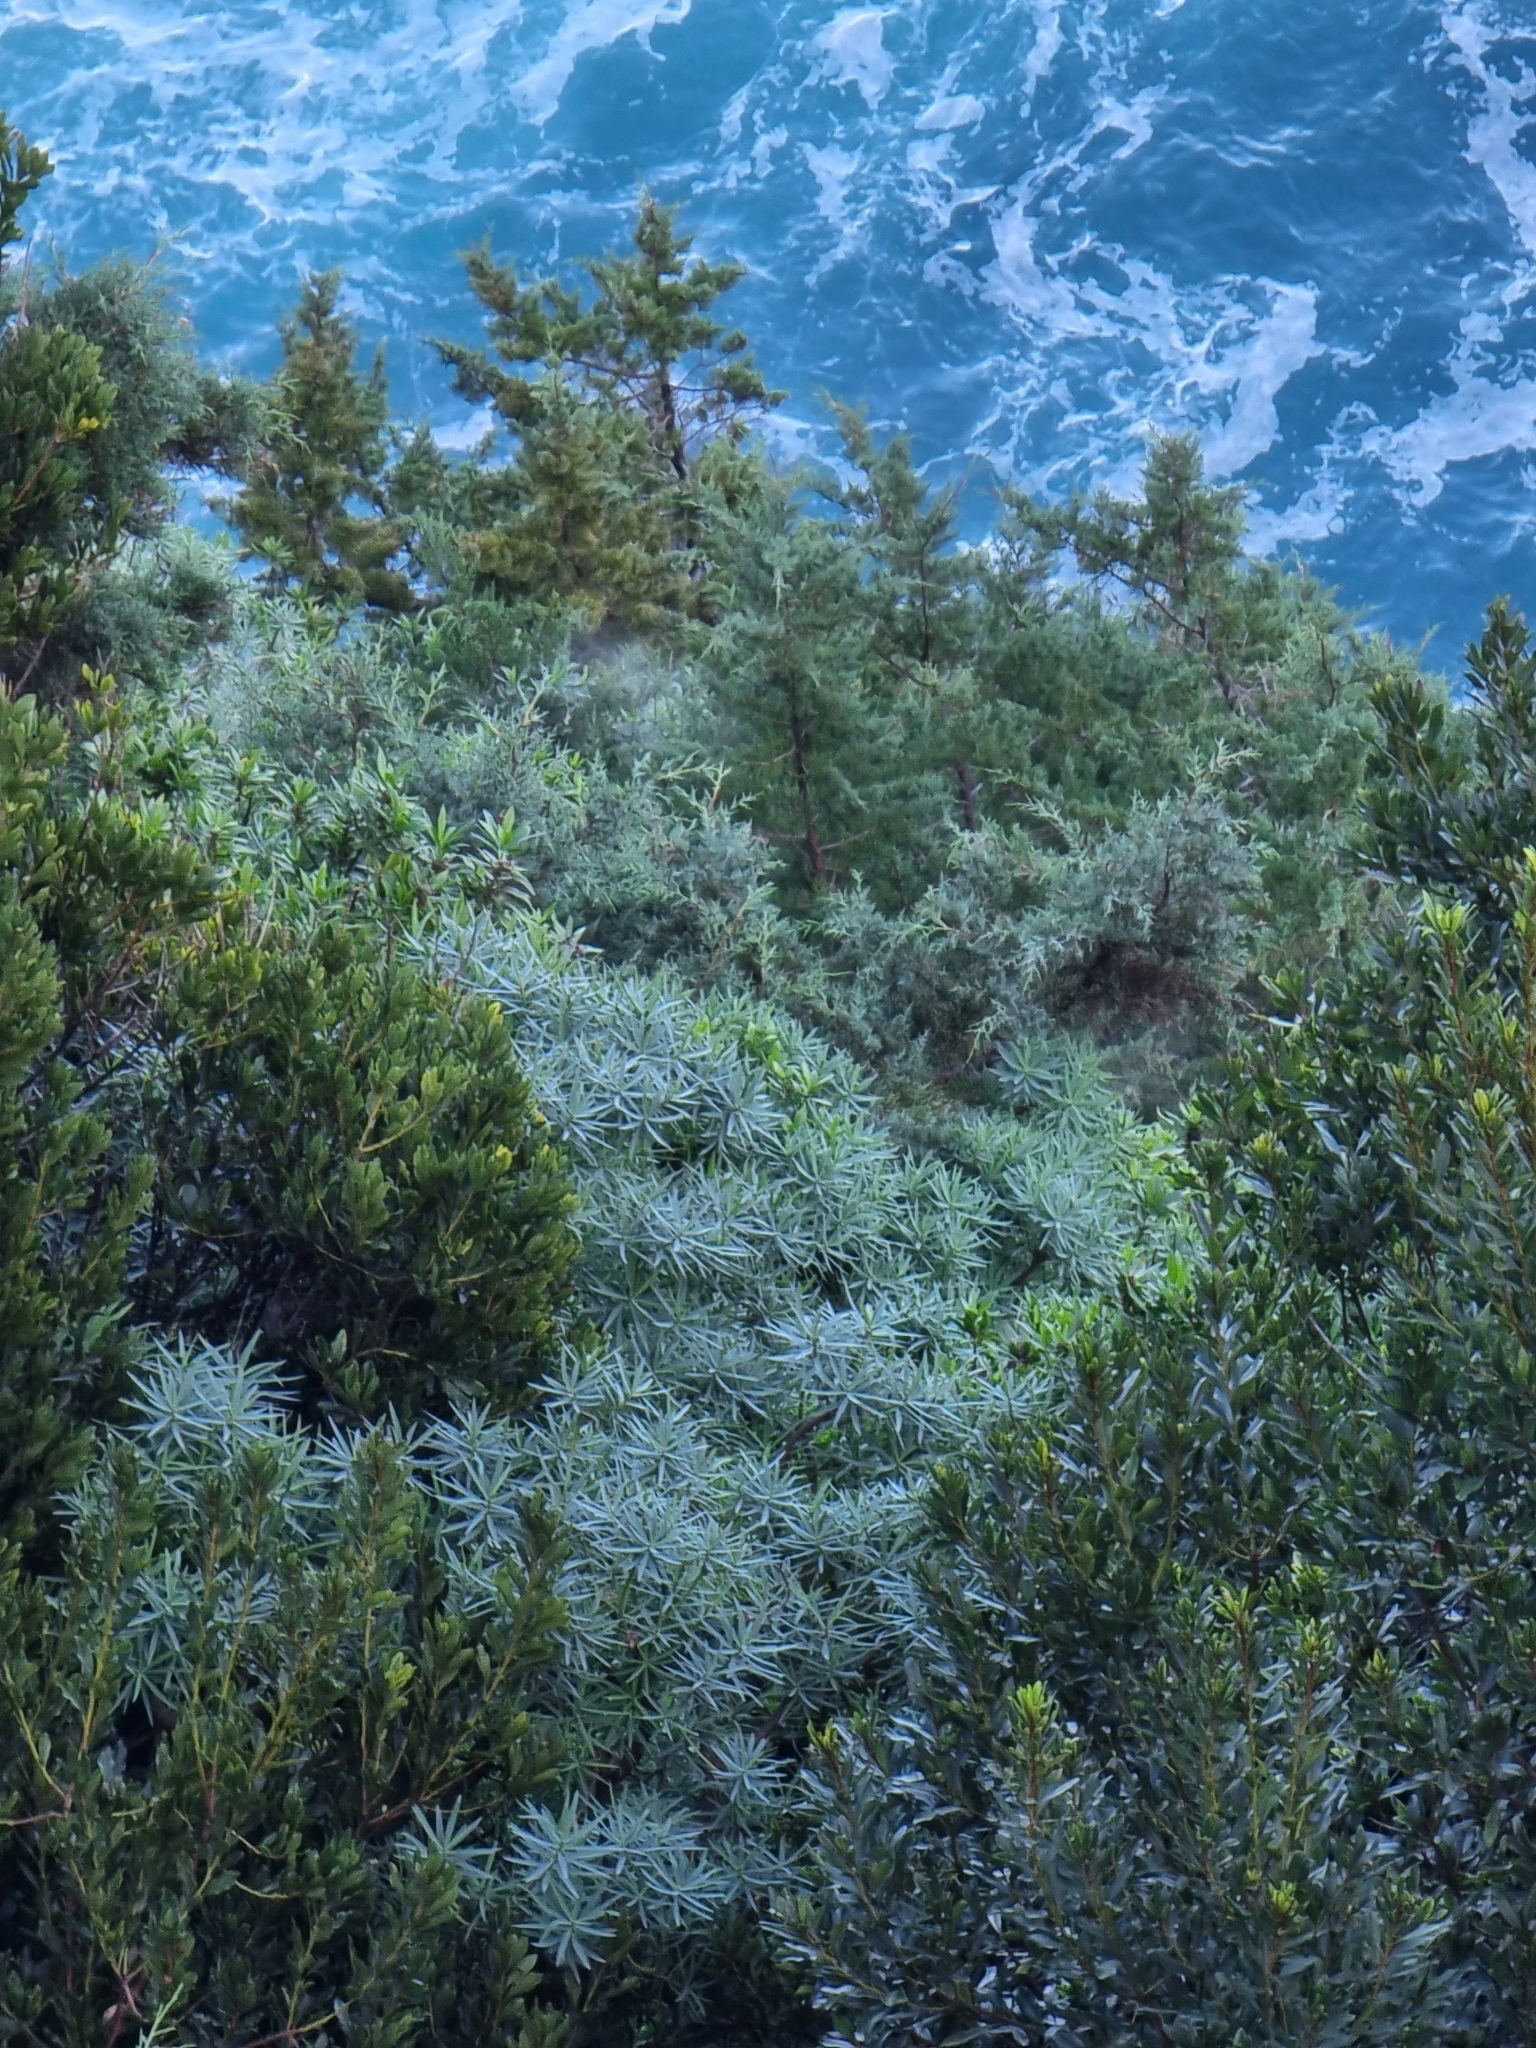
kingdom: Plantae
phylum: Tracheophyta
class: Magnoliopsida
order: Malpighiales
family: Euphorbiaceae
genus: Euphorbia
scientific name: Euphorbia piscatoria
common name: Fish-stunning spurge
